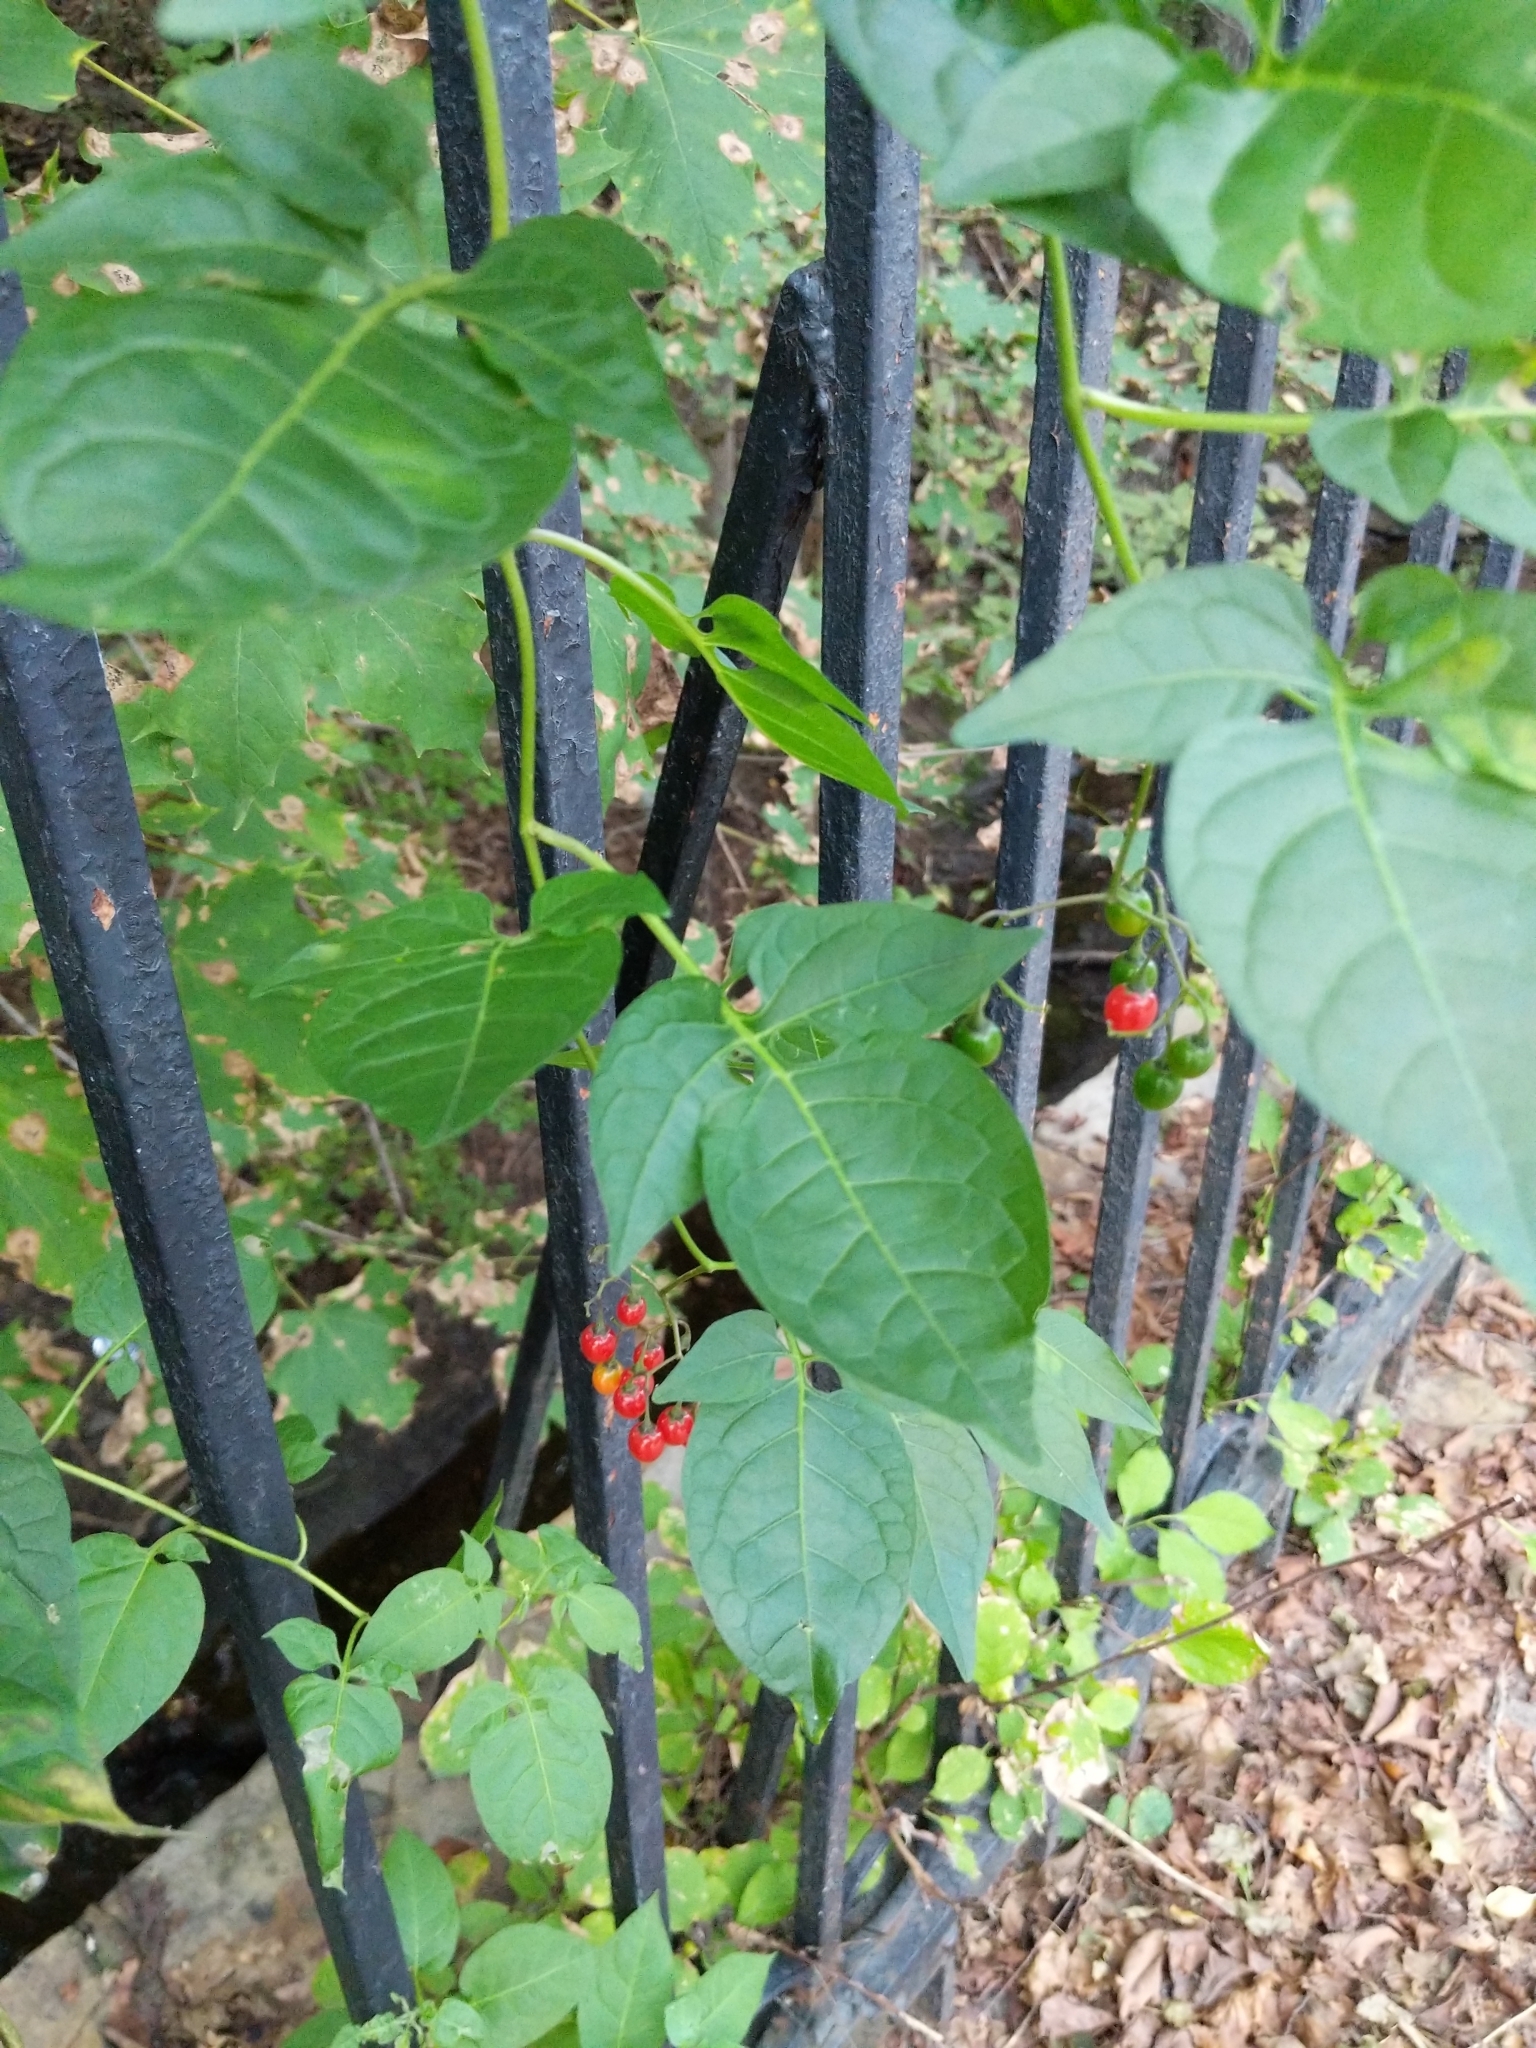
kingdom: Plantae
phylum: Tracheophyta
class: Magnoliopsida
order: Solanales
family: Solanaceae
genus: Solanum
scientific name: Solanum dulcamara
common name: Climbing nightshade
